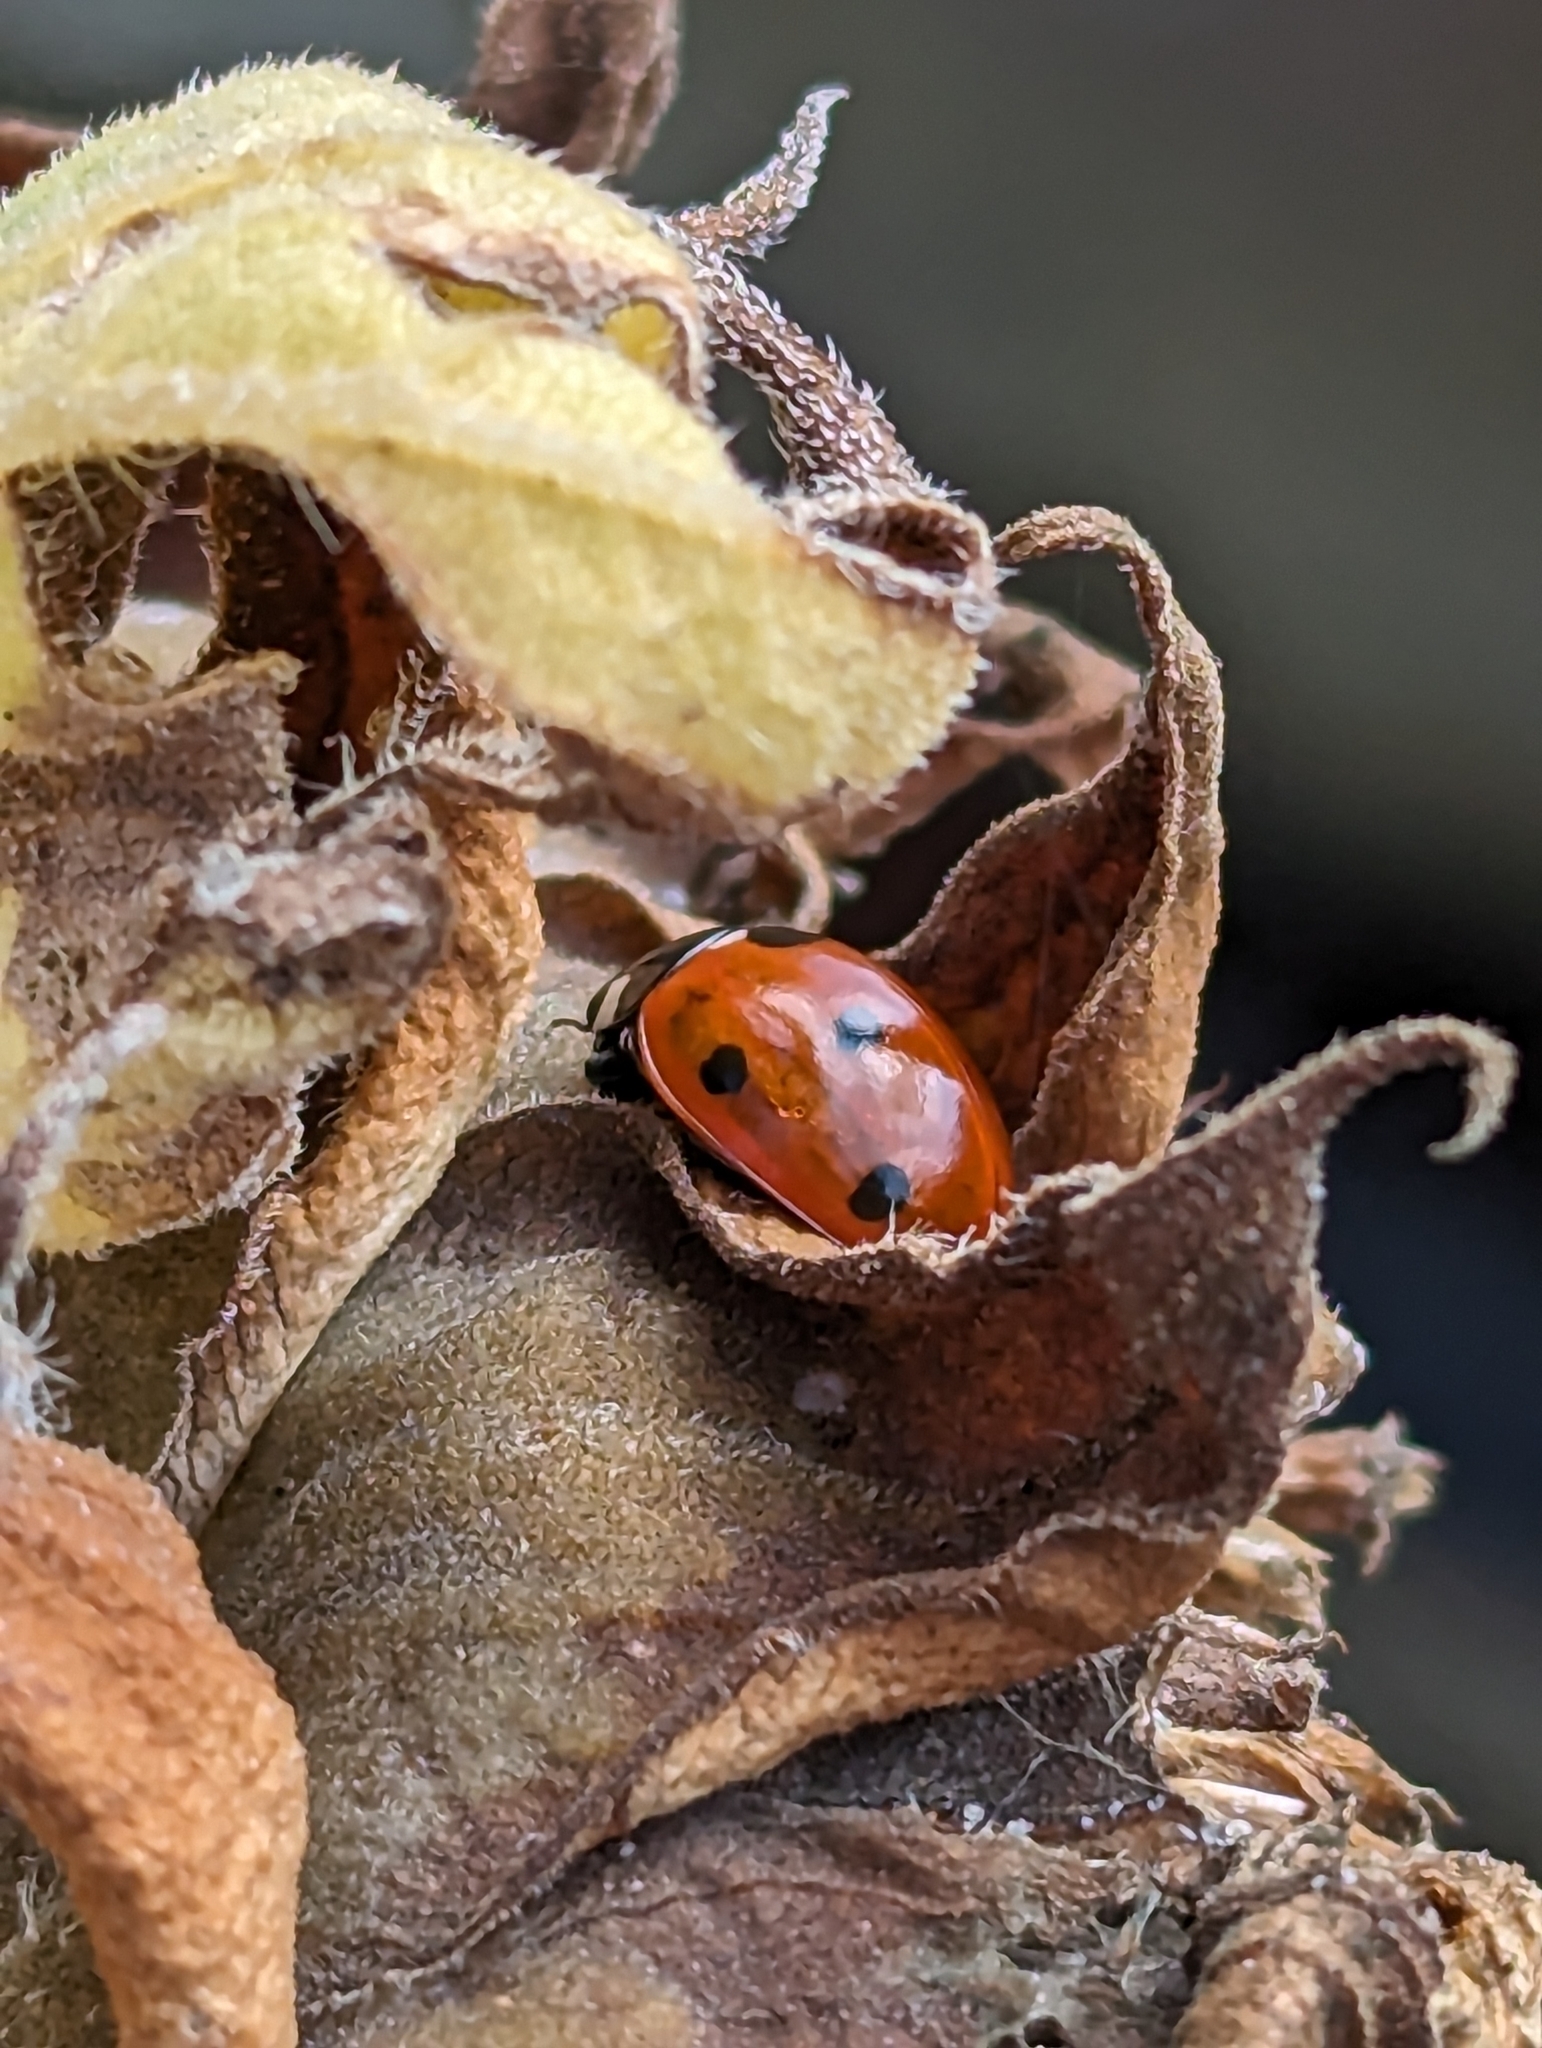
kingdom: Animalia
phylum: Arthropoda
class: Insecta
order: Coleoptera
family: Coccinellidae
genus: Coccinella
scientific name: Coccinella septempunctata
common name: Sevenspotted lady beetle
